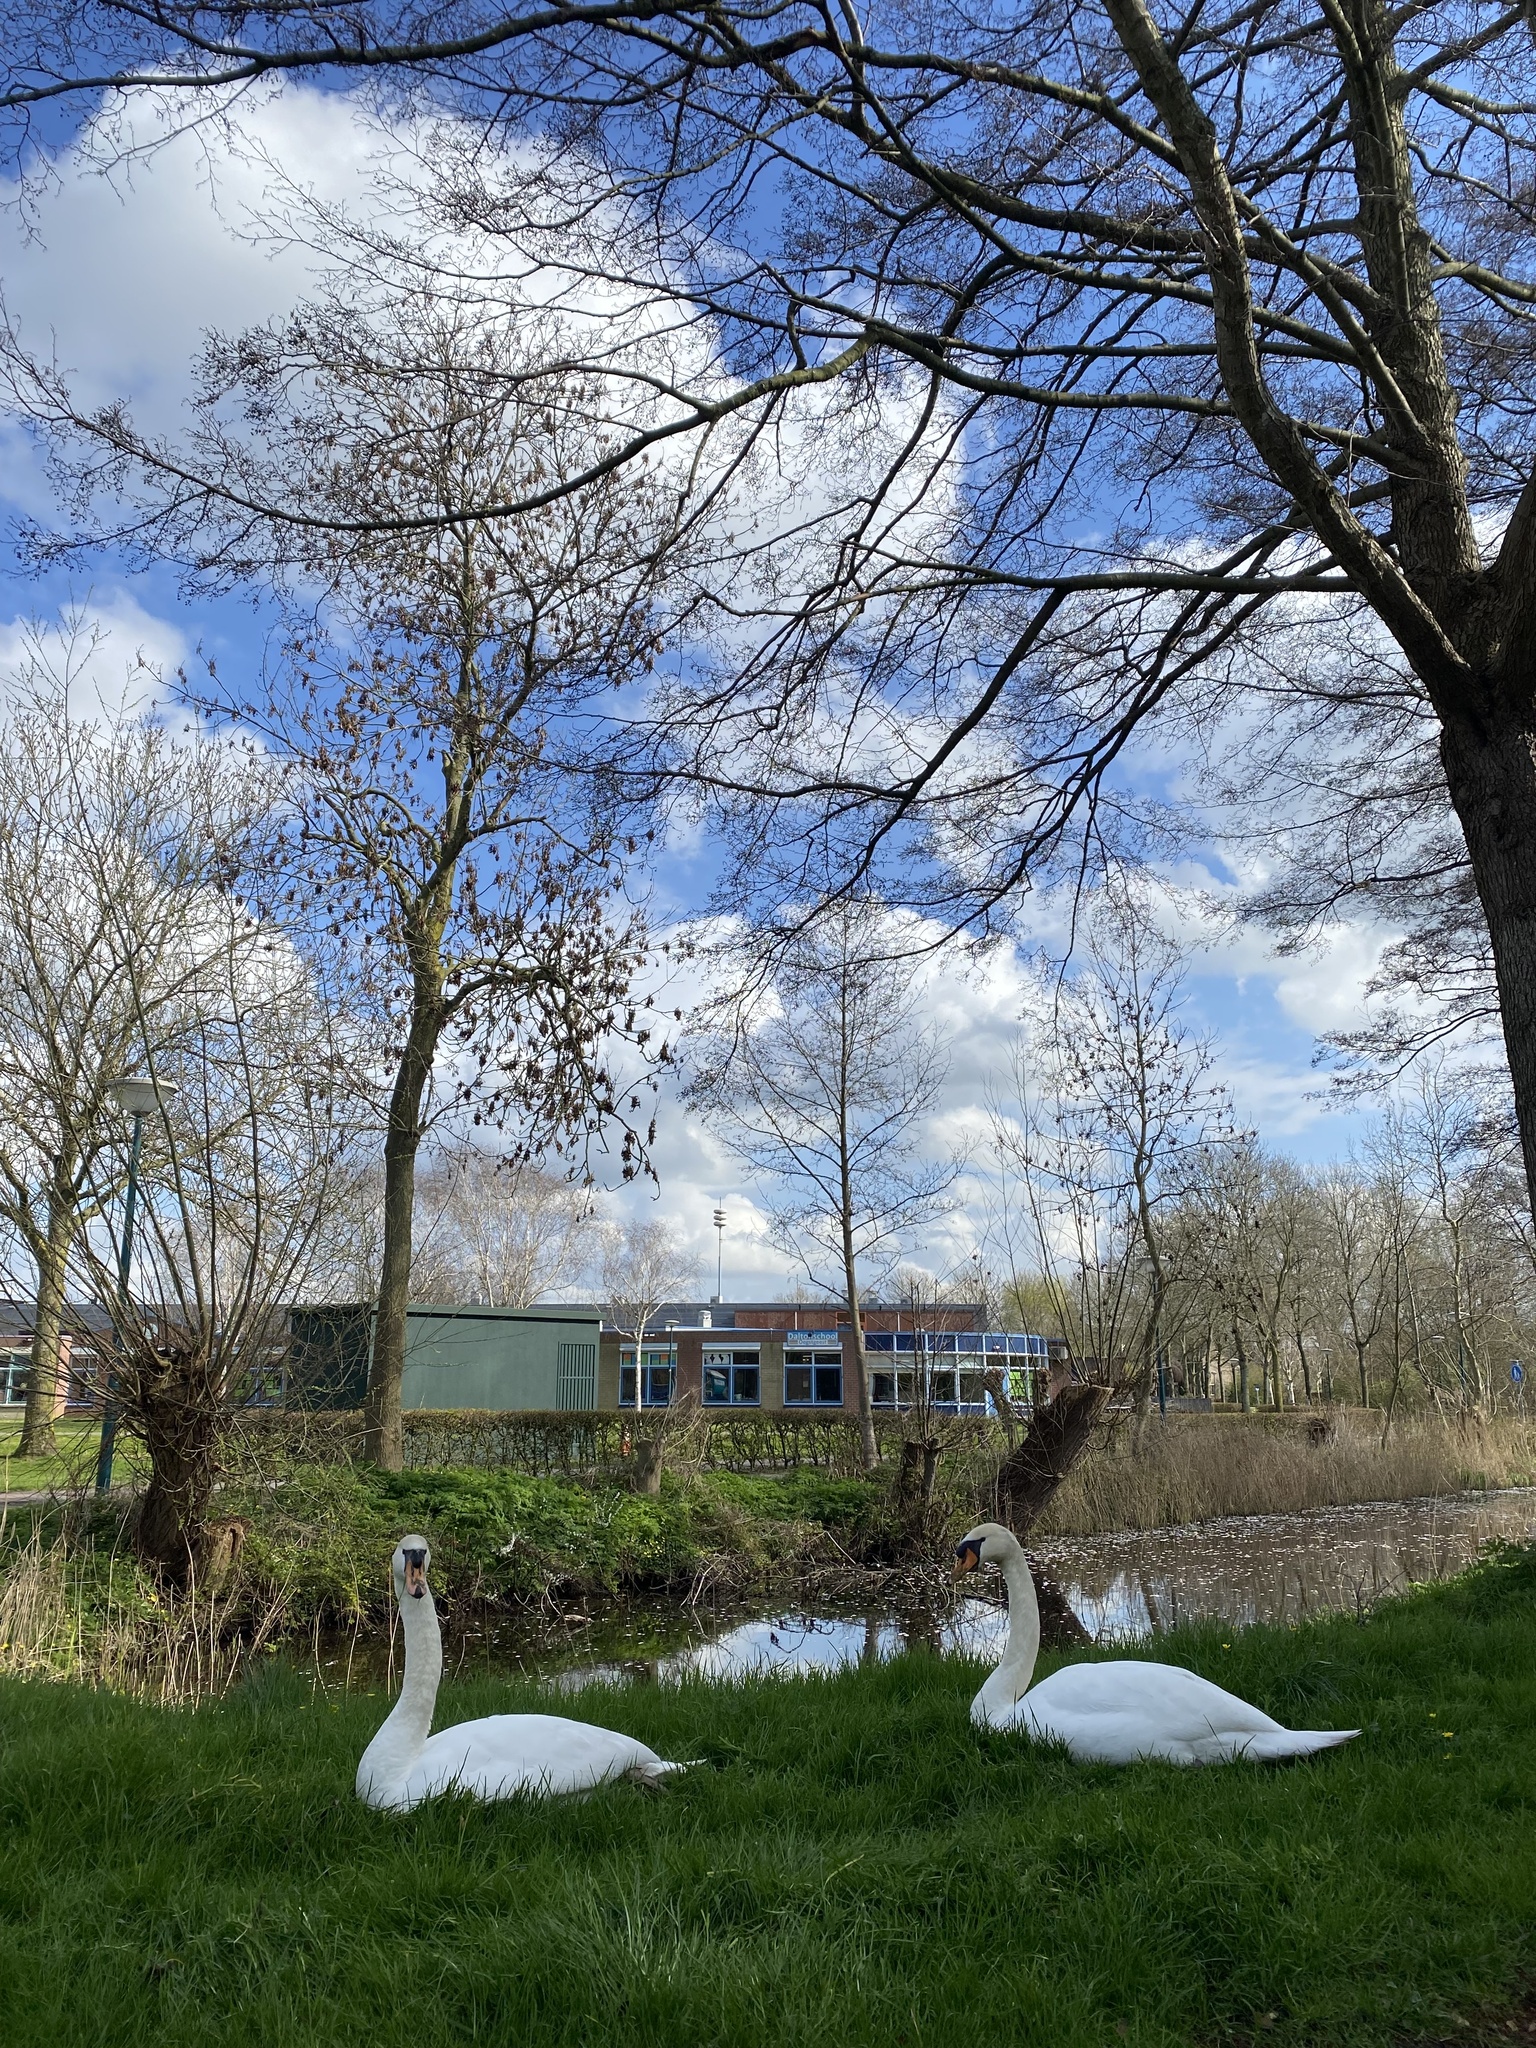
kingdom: Animalia
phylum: Chordata
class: Aves
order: Anseriformes
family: Anatidae
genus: Cygnus
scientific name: Cygnus olor
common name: Mute swan
